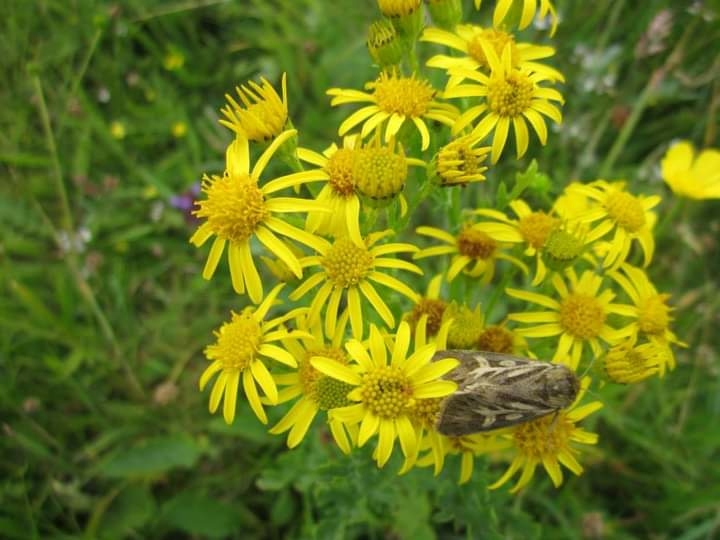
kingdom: Animalia
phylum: Arthropoda
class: Insecta
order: Lepidoptera
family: Noctuidae
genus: Cerapteryx
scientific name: Cerapteryx graminis
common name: Antler moth
